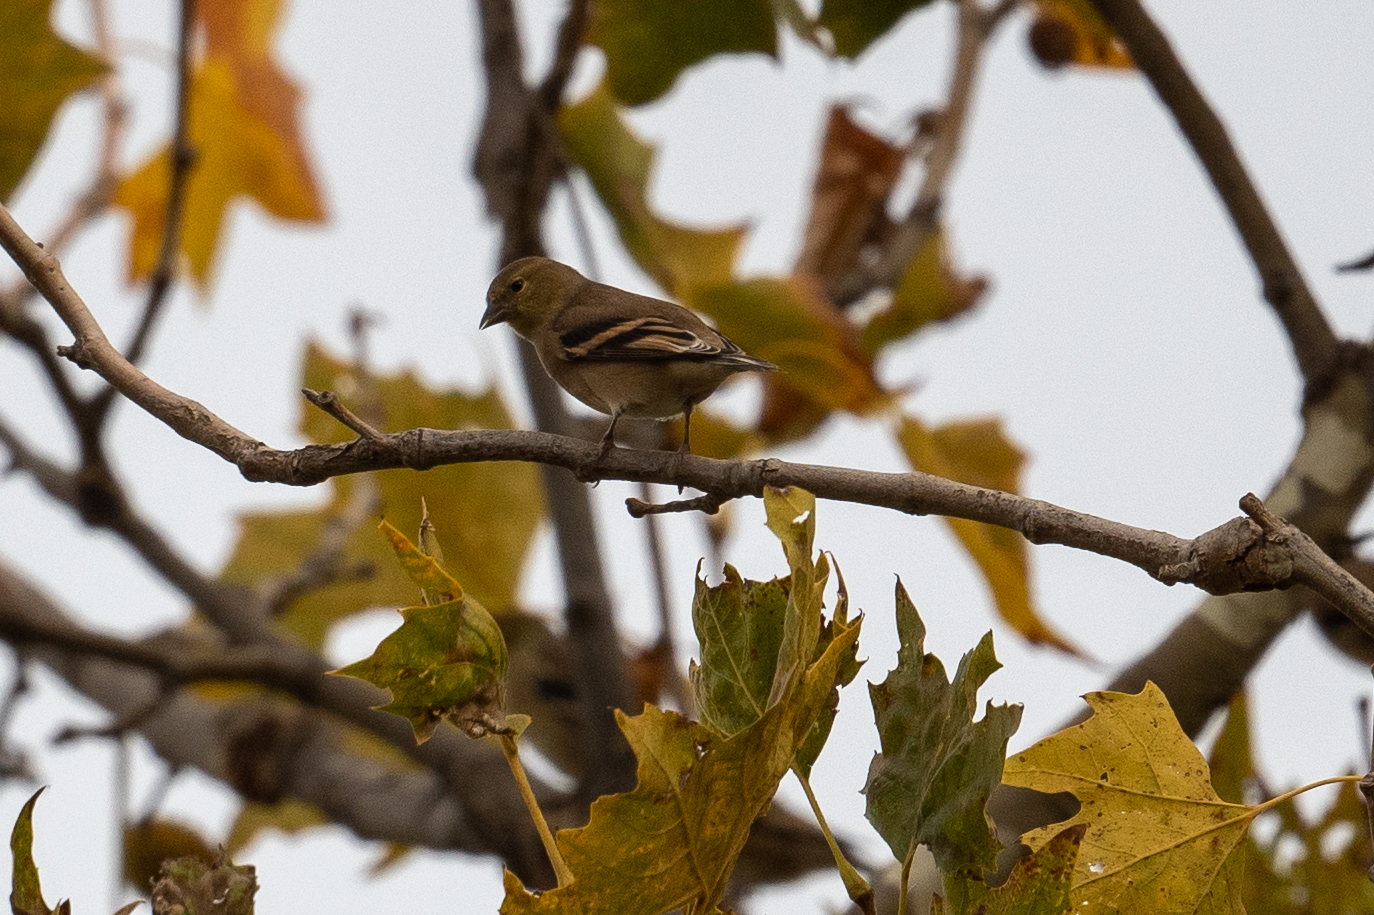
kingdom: Animalia
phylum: Chordata
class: Aves
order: Passeriformes
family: Fringillidae
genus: Spinus
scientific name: Spinus tristis
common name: American goldfinch
